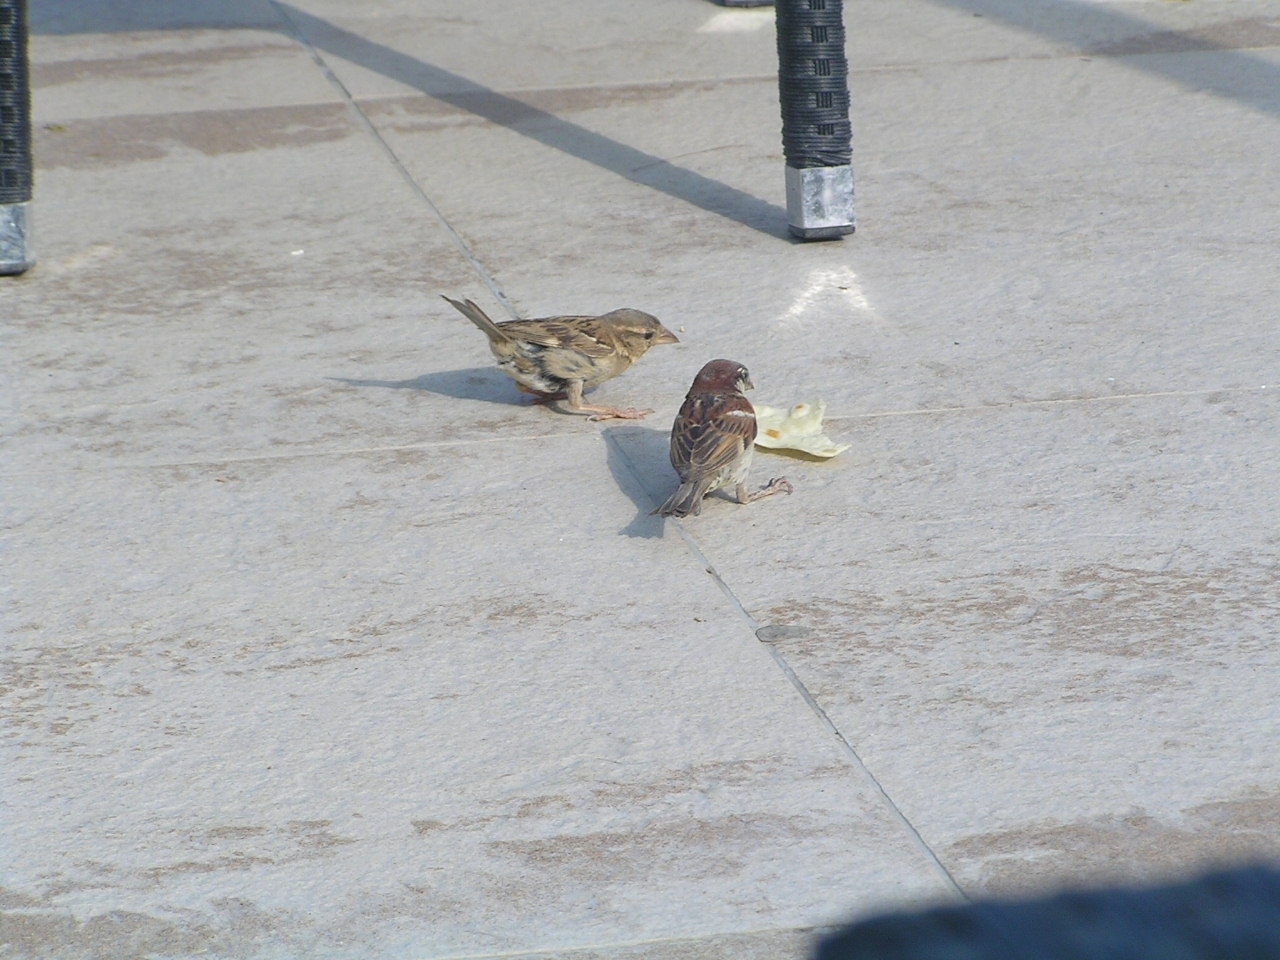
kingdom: Animalia
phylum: Chordata
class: Aves
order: Passeriformes
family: Passeridae
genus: Passer
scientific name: Passer domesticus
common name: House sparrow
